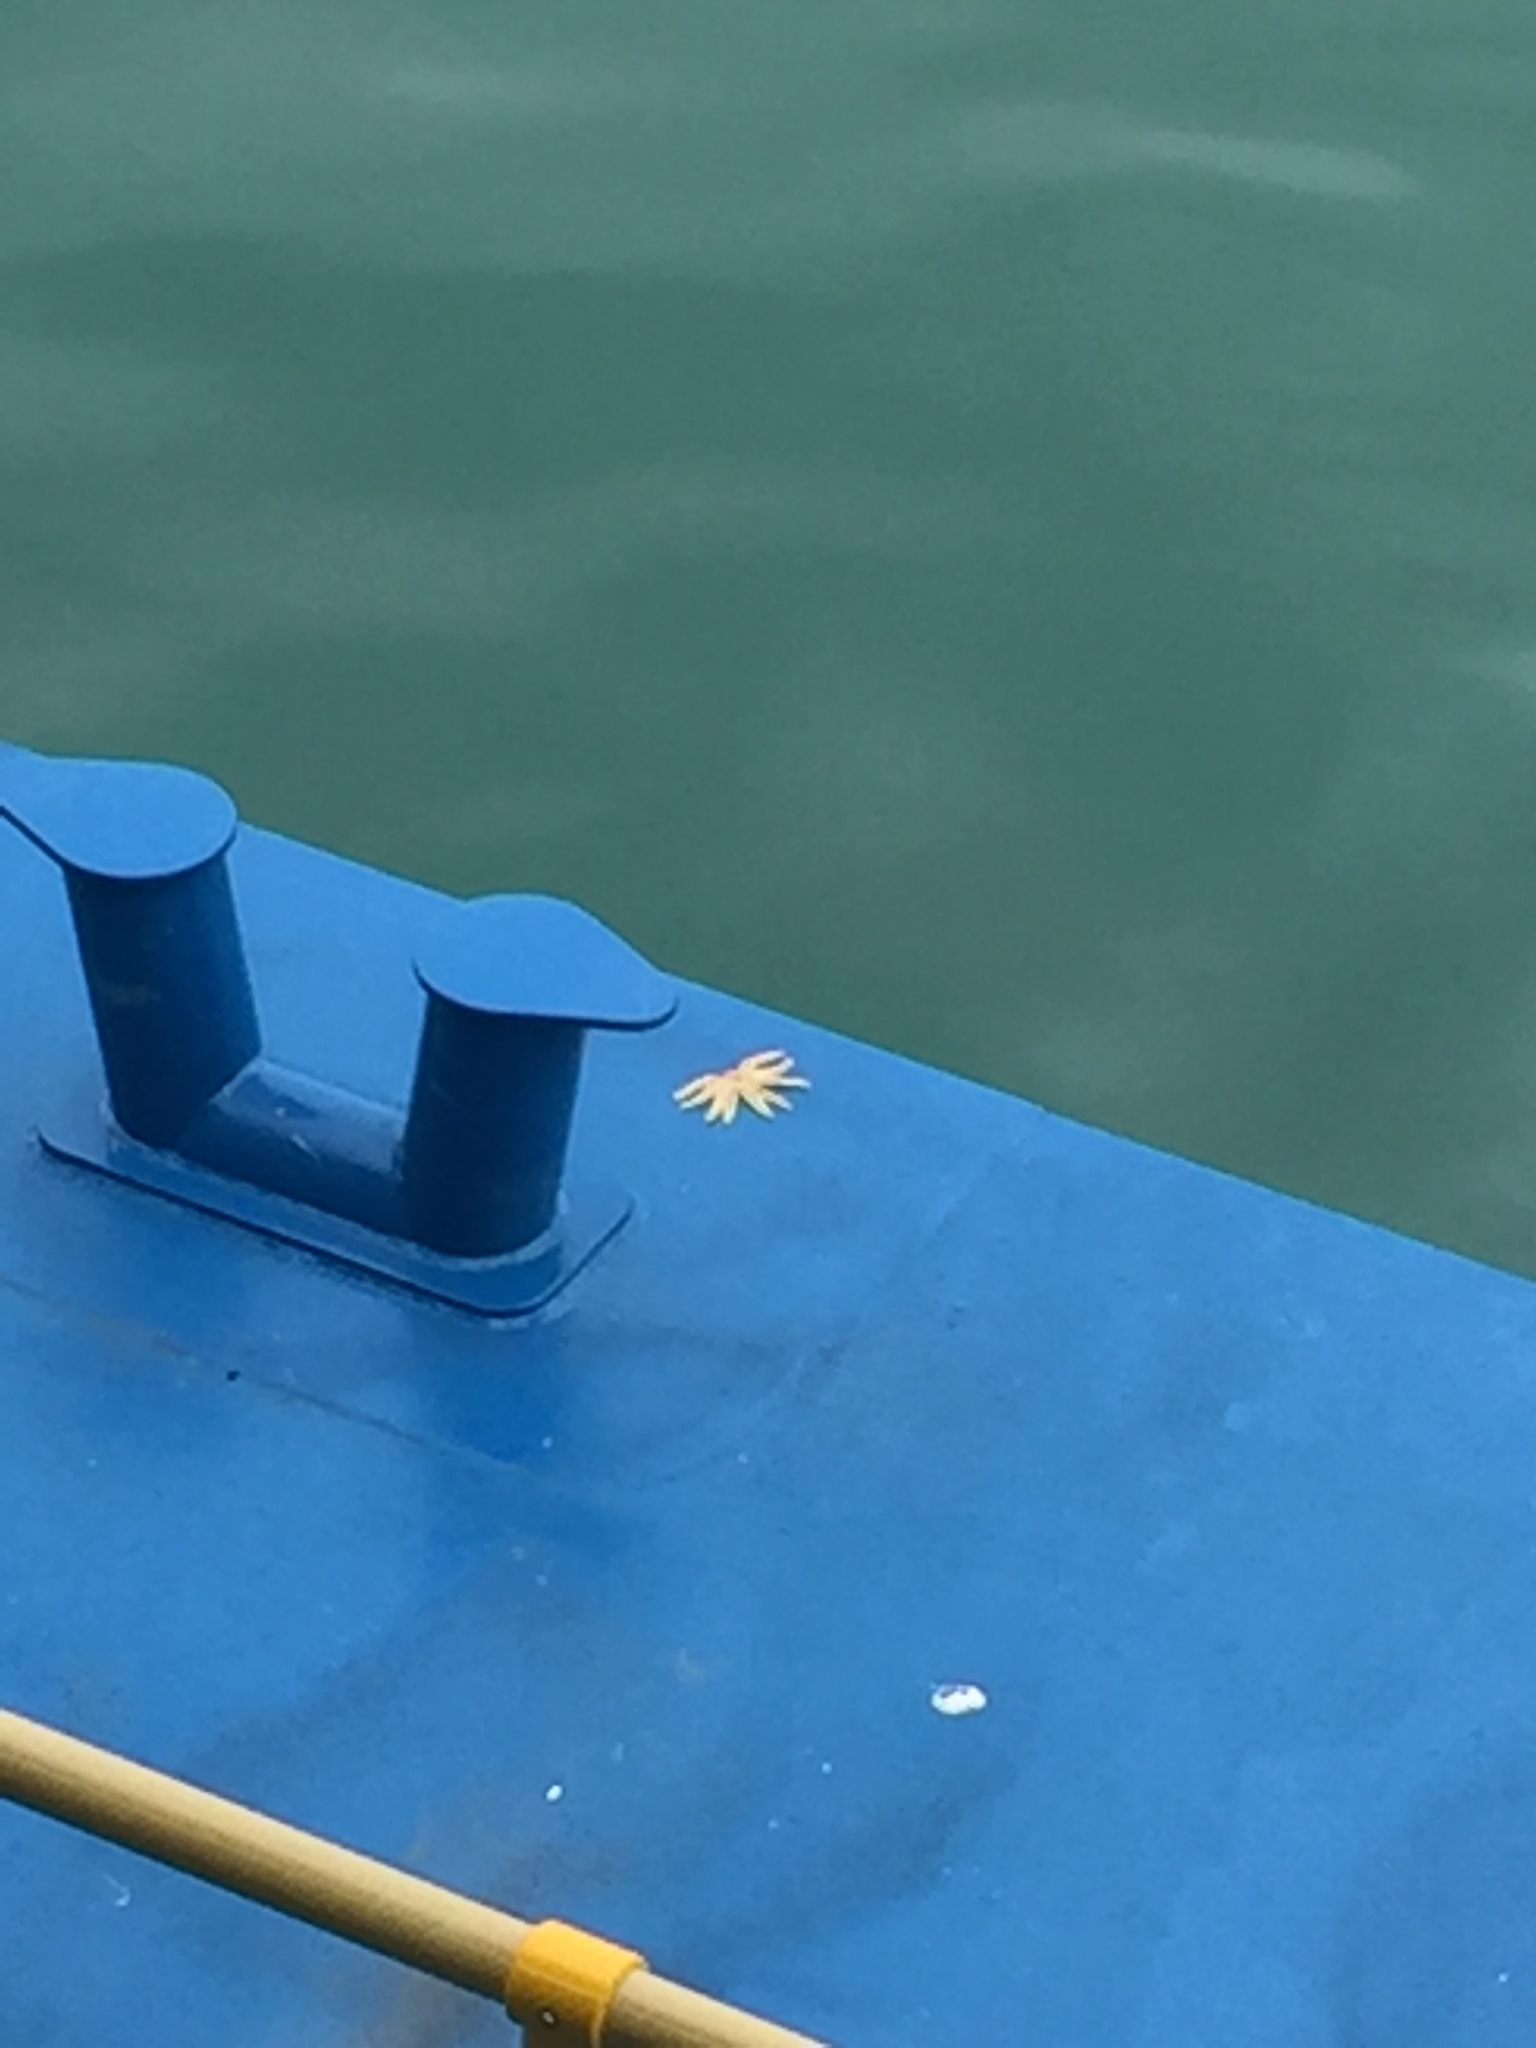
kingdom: Animalia
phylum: Echinodermata
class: Asteroidea
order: Forcipulatida
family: Asteriidae
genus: Coscinasterias
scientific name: Coscinasterias muricata
